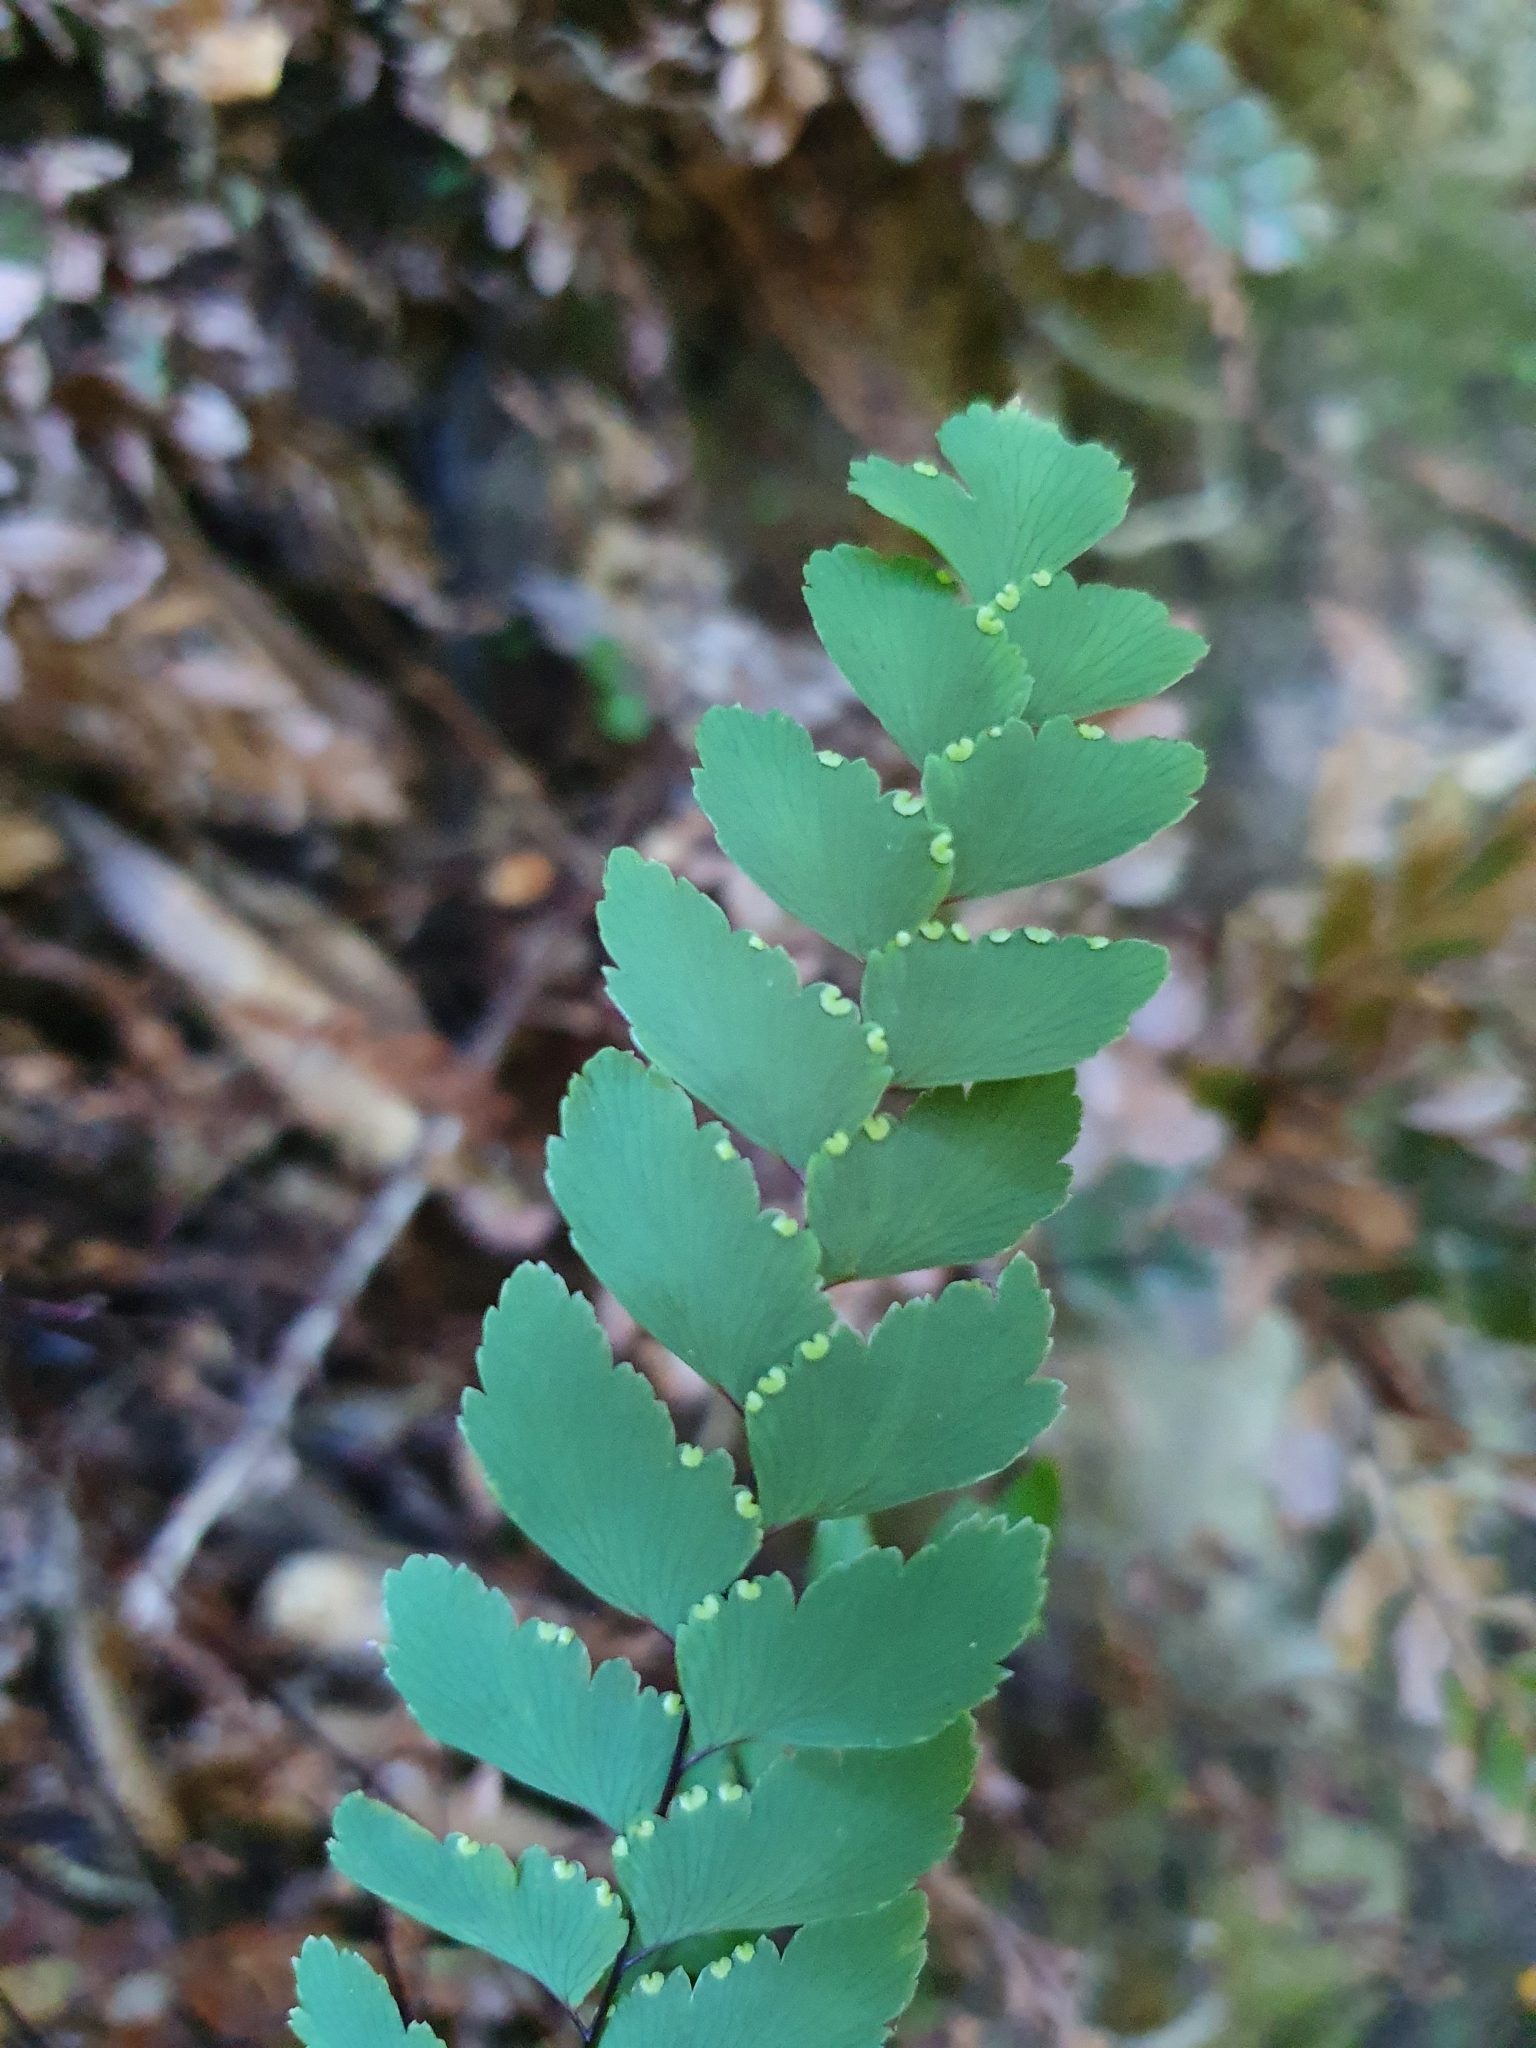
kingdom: Plantae
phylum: Tracheophyta
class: Polypodiopsida
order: Polypodiales
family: Pteridaceae
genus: Adiantum
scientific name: Adiantum cunninghamii
